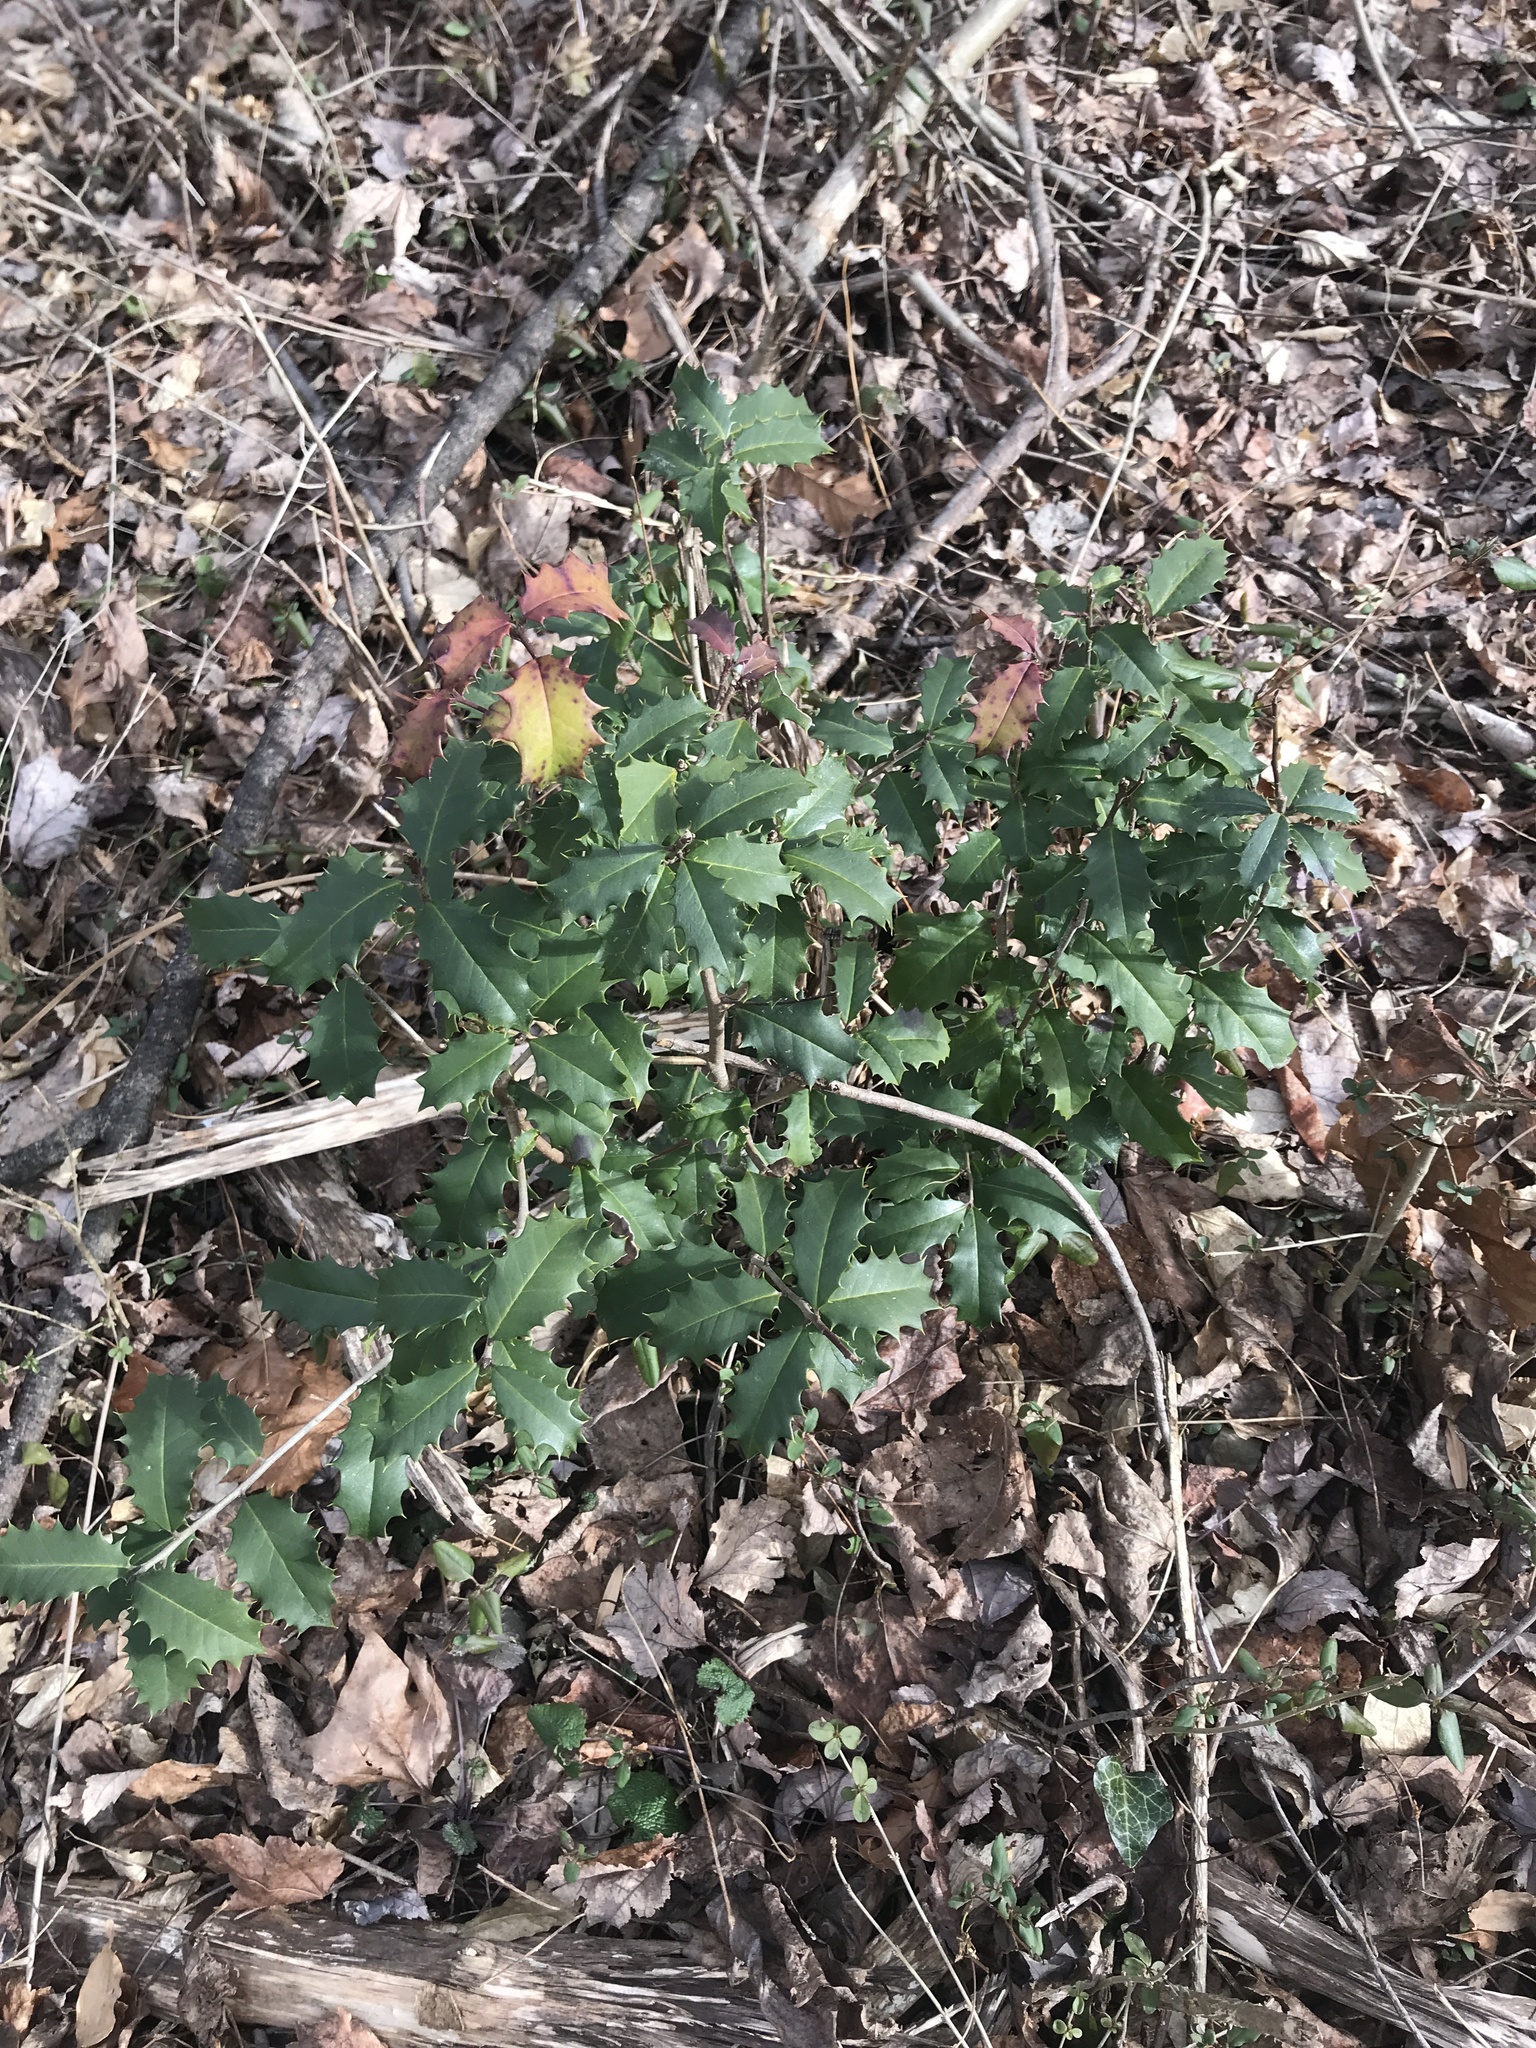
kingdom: Plantae
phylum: Tracheophyta
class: Magnoliopsida
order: Aquifoliales
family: Aquifoliaceae
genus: Ilex
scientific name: Ilex opaca
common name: American holly
